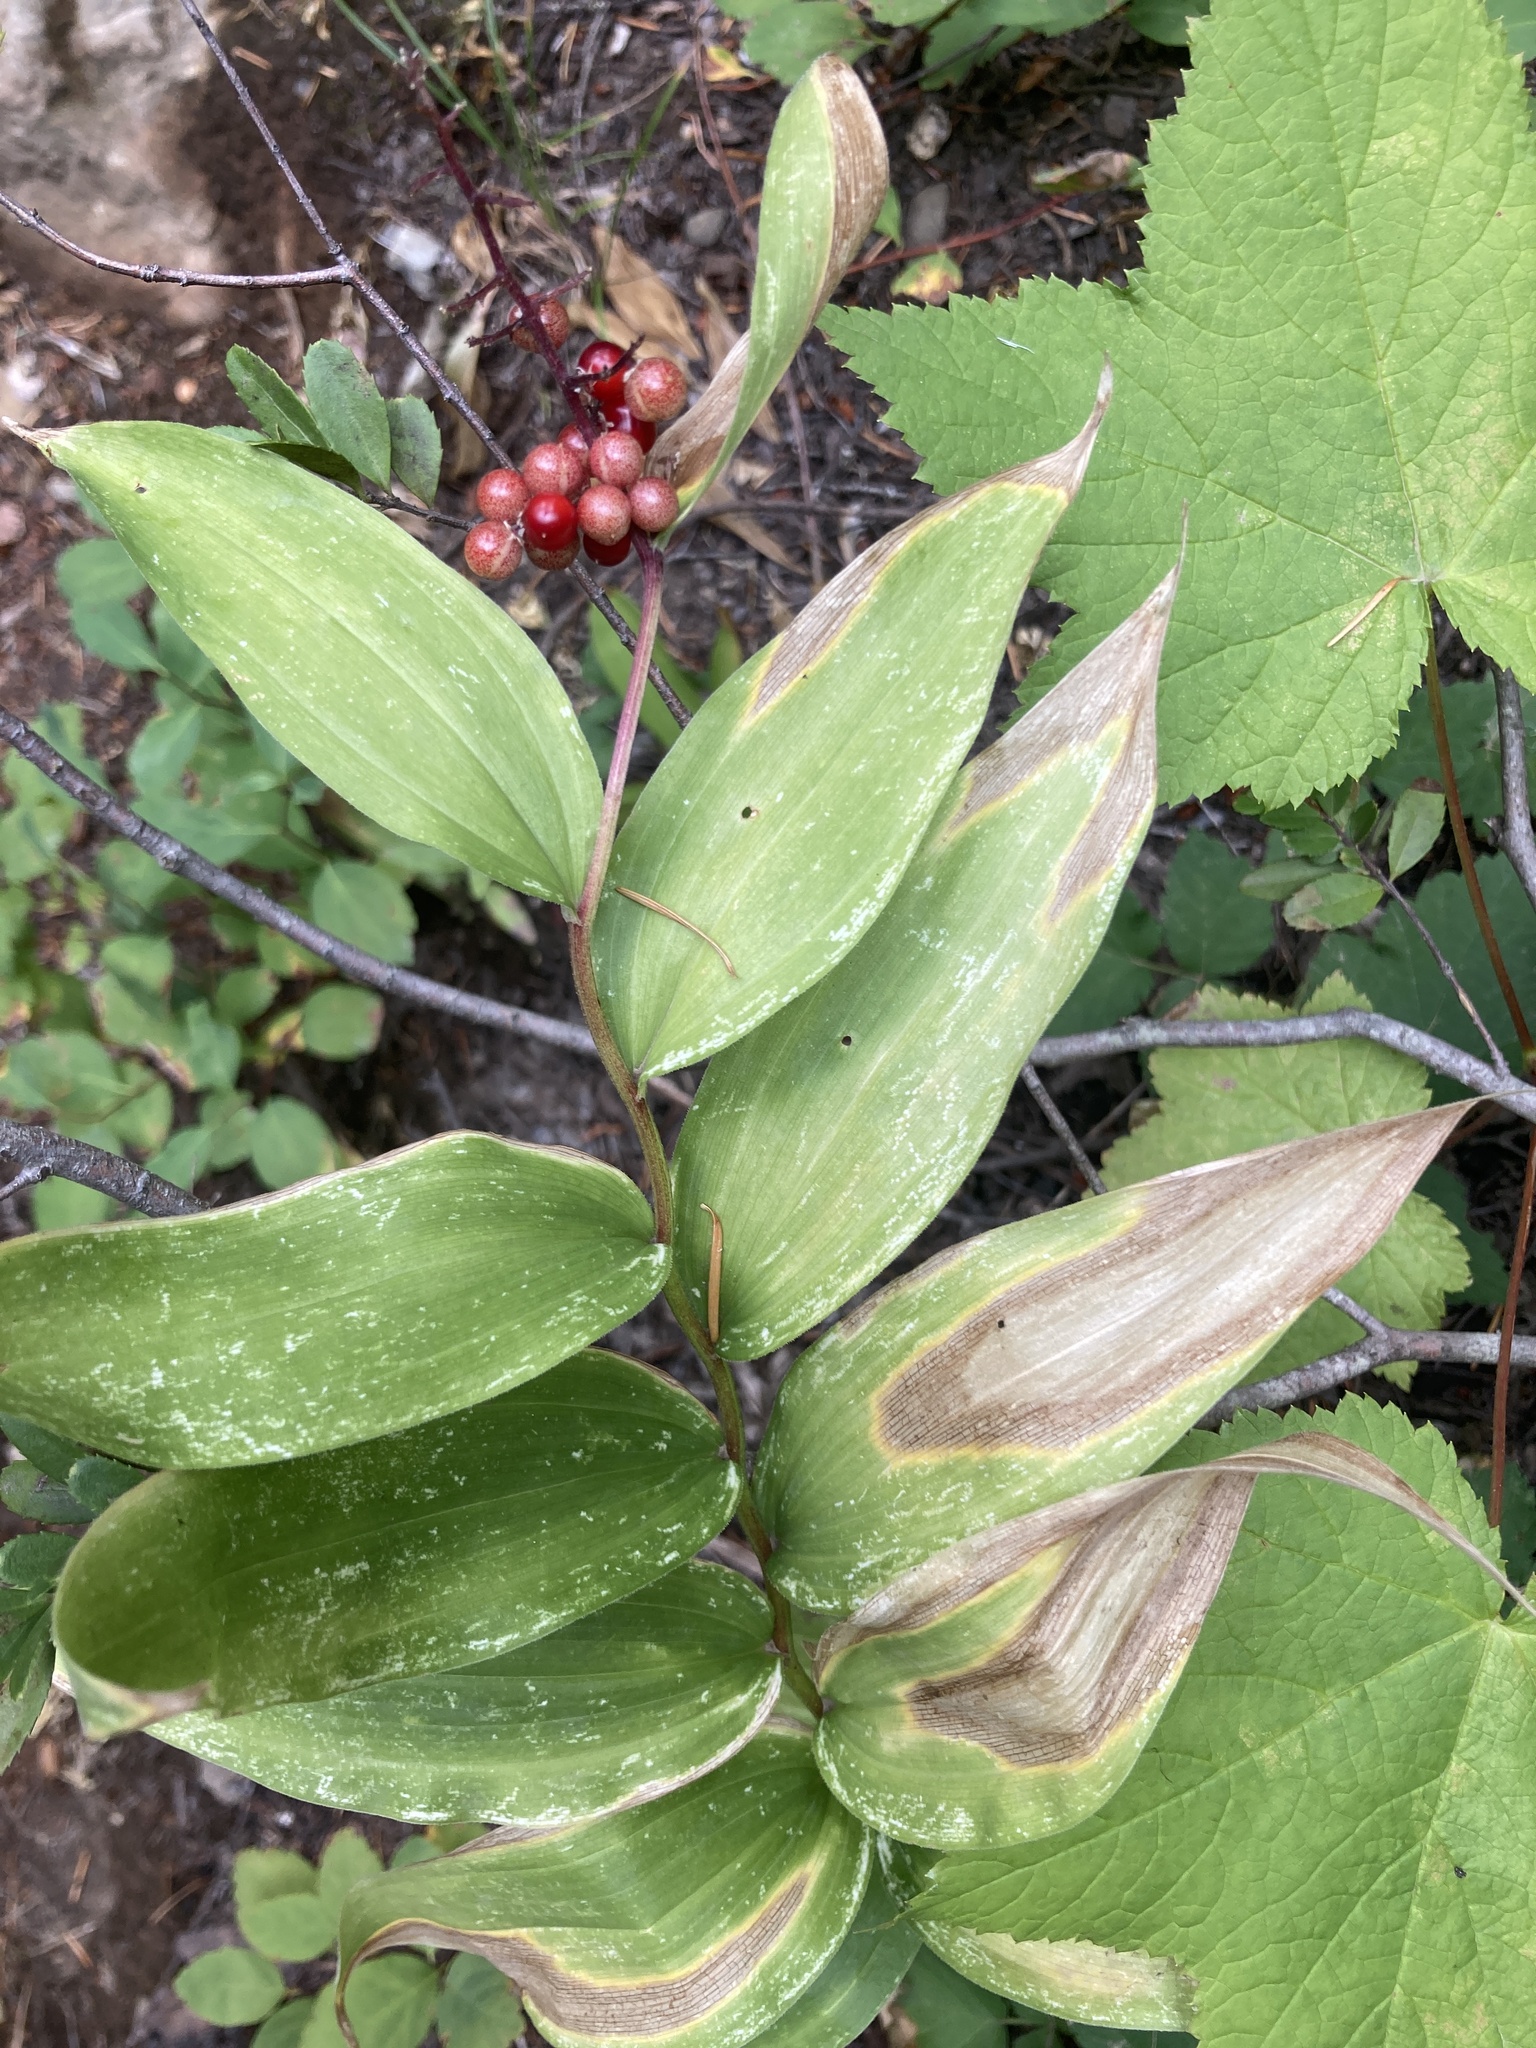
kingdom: Plantae
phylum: Tracheophyta
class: Liliopsida
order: Asparagales
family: Asparagaceae
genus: Maianthemum
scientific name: Maianthemum racemosum
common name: False spikenard
